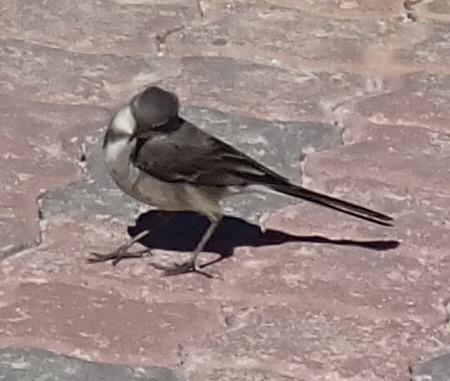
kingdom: Animalia
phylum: Chordata
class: Aves
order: Passeriformes
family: Motacillidae
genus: Motacilla
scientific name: Motacilla capensis
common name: Cape wagtail
